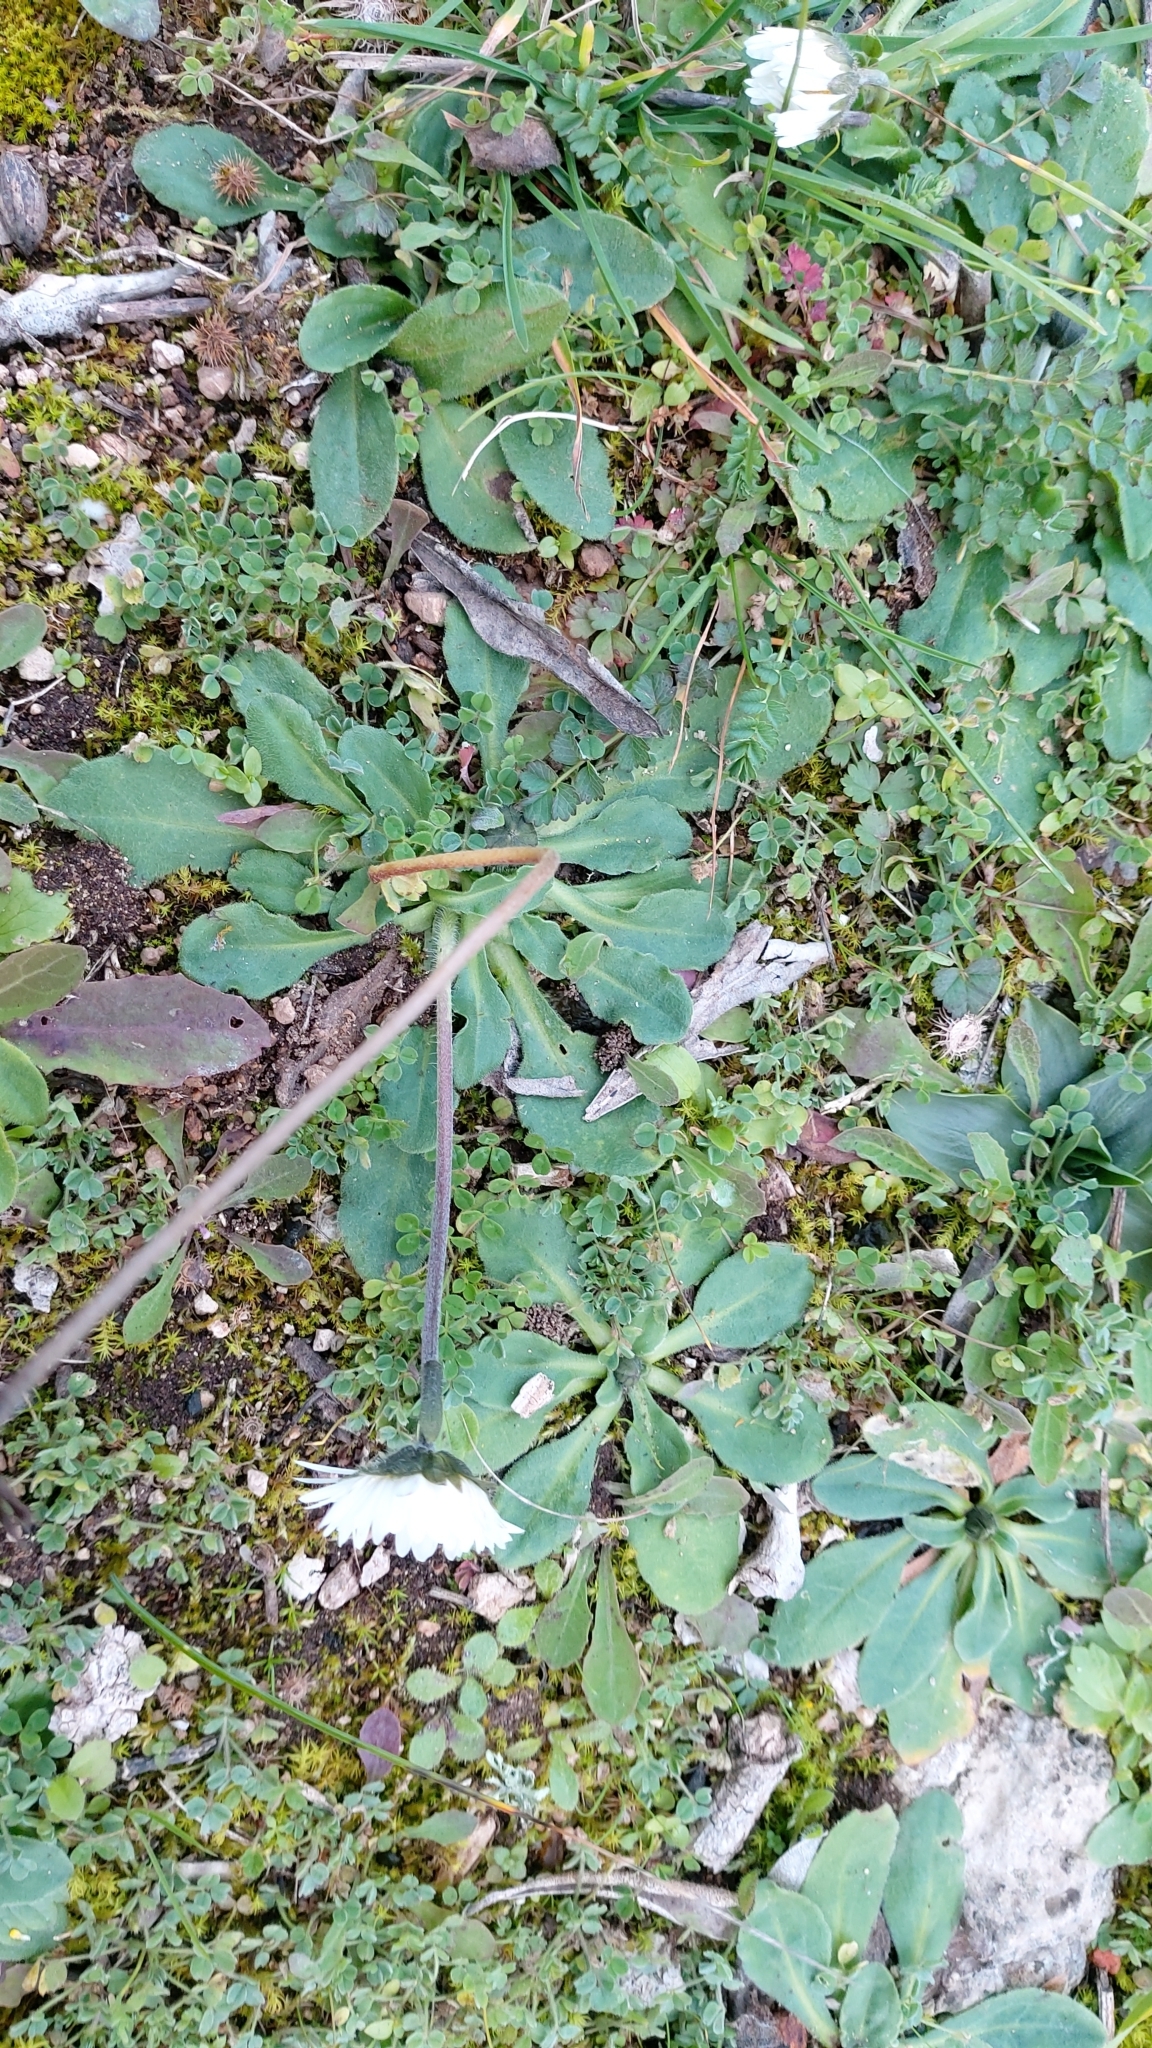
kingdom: Plantae
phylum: Tracheophyta
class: Magnoliopsida
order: Asterales
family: Asteraceae
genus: Bellis
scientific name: Bellis perennis
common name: Lawndaisy
